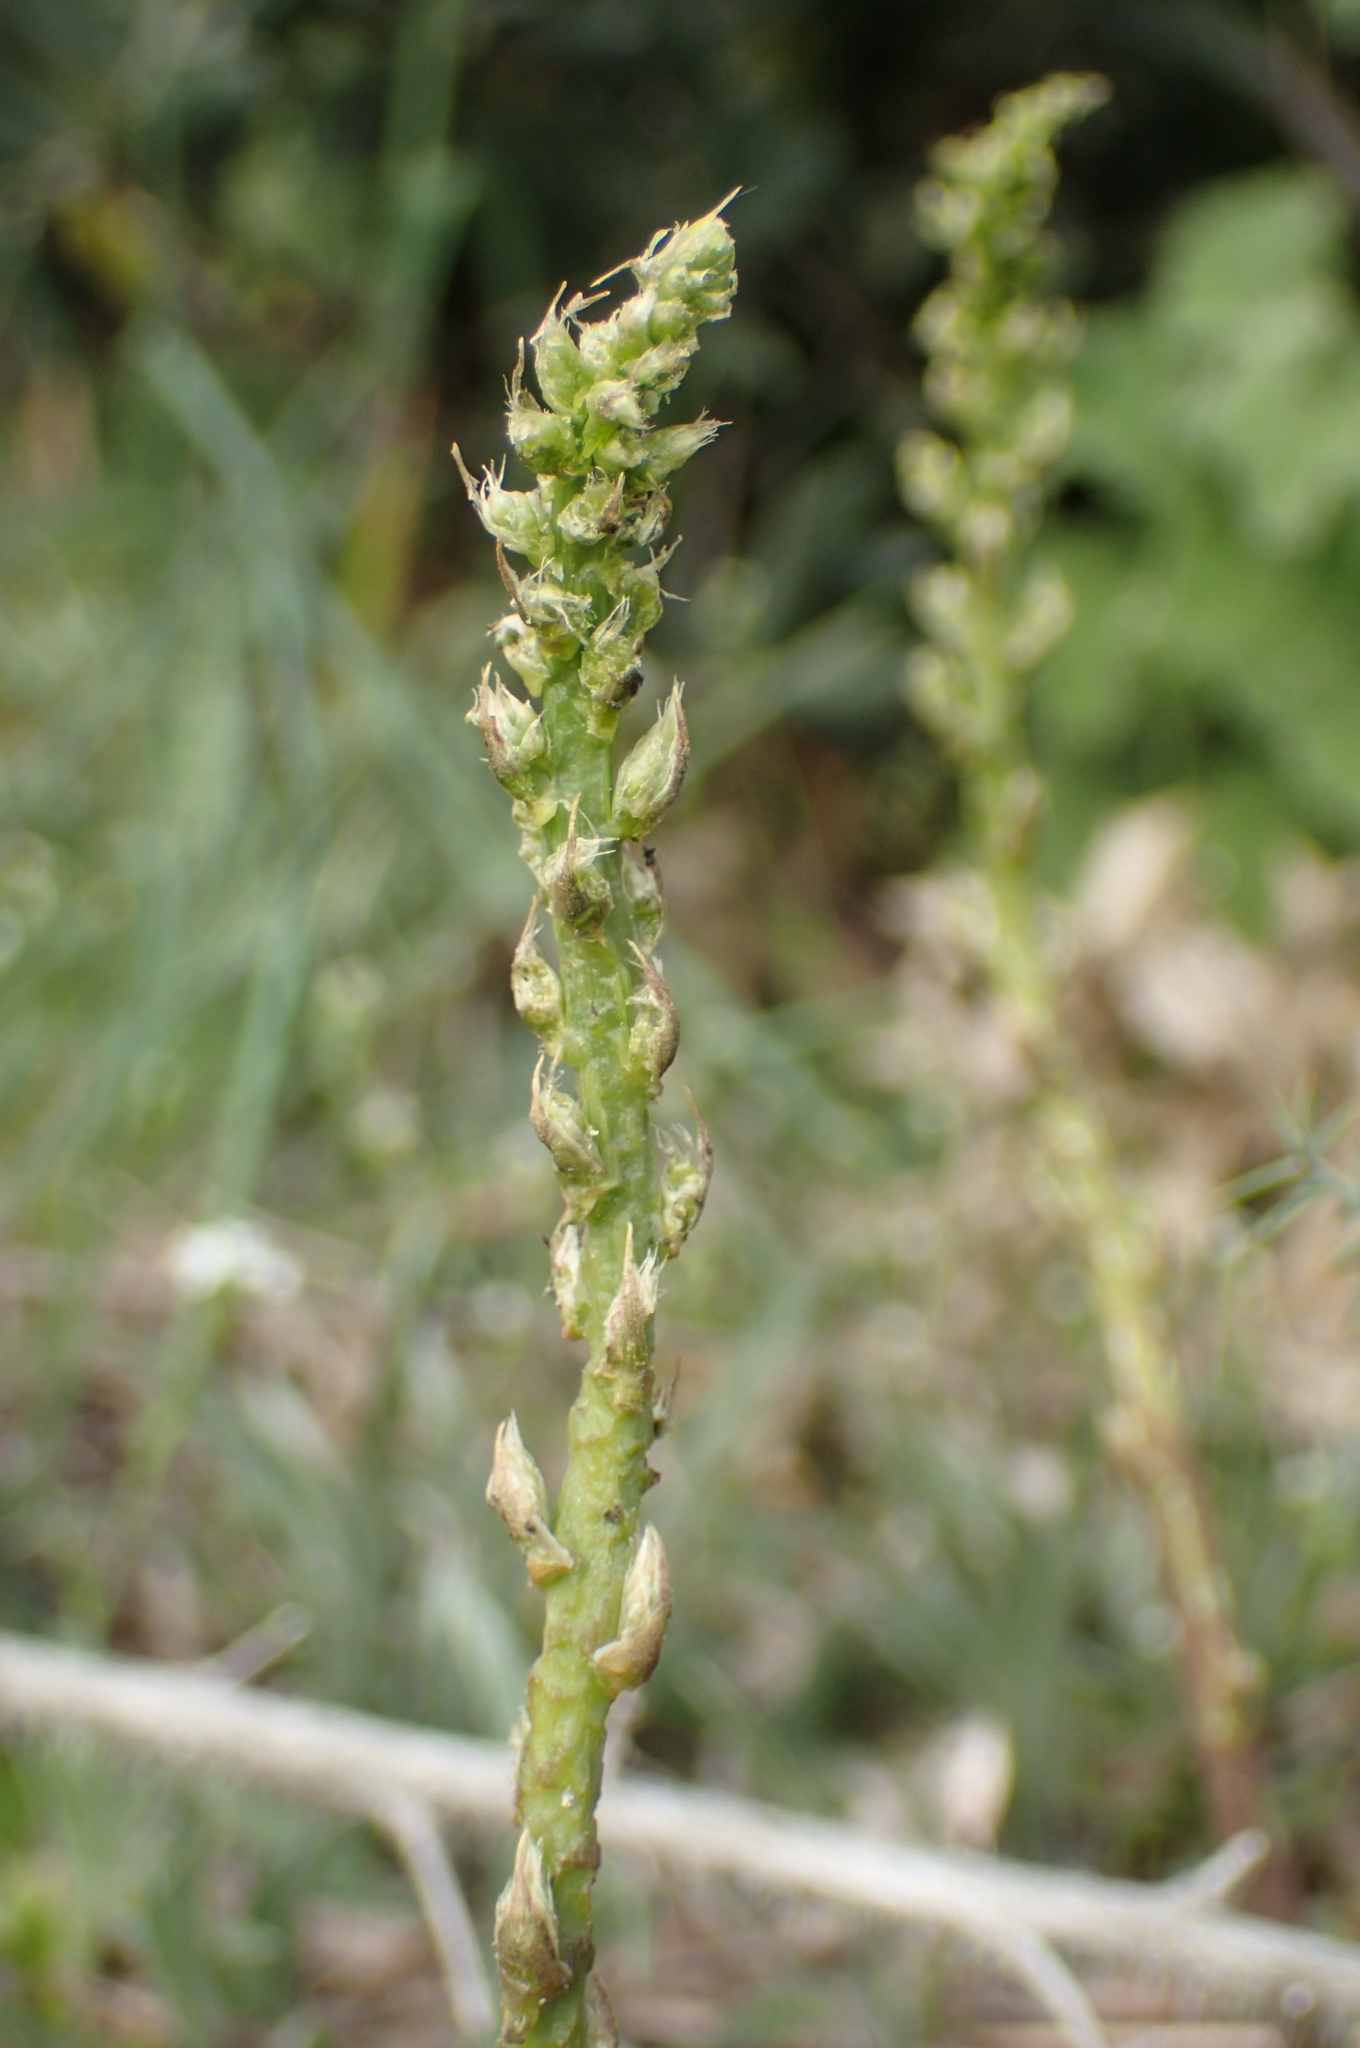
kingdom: Plantae
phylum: Tracheophyta
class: Liliopsida
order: Asparagales
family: Asparagaceae
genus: Asparagus
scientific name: Asparagus acutifolius
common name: Wild asparagus
